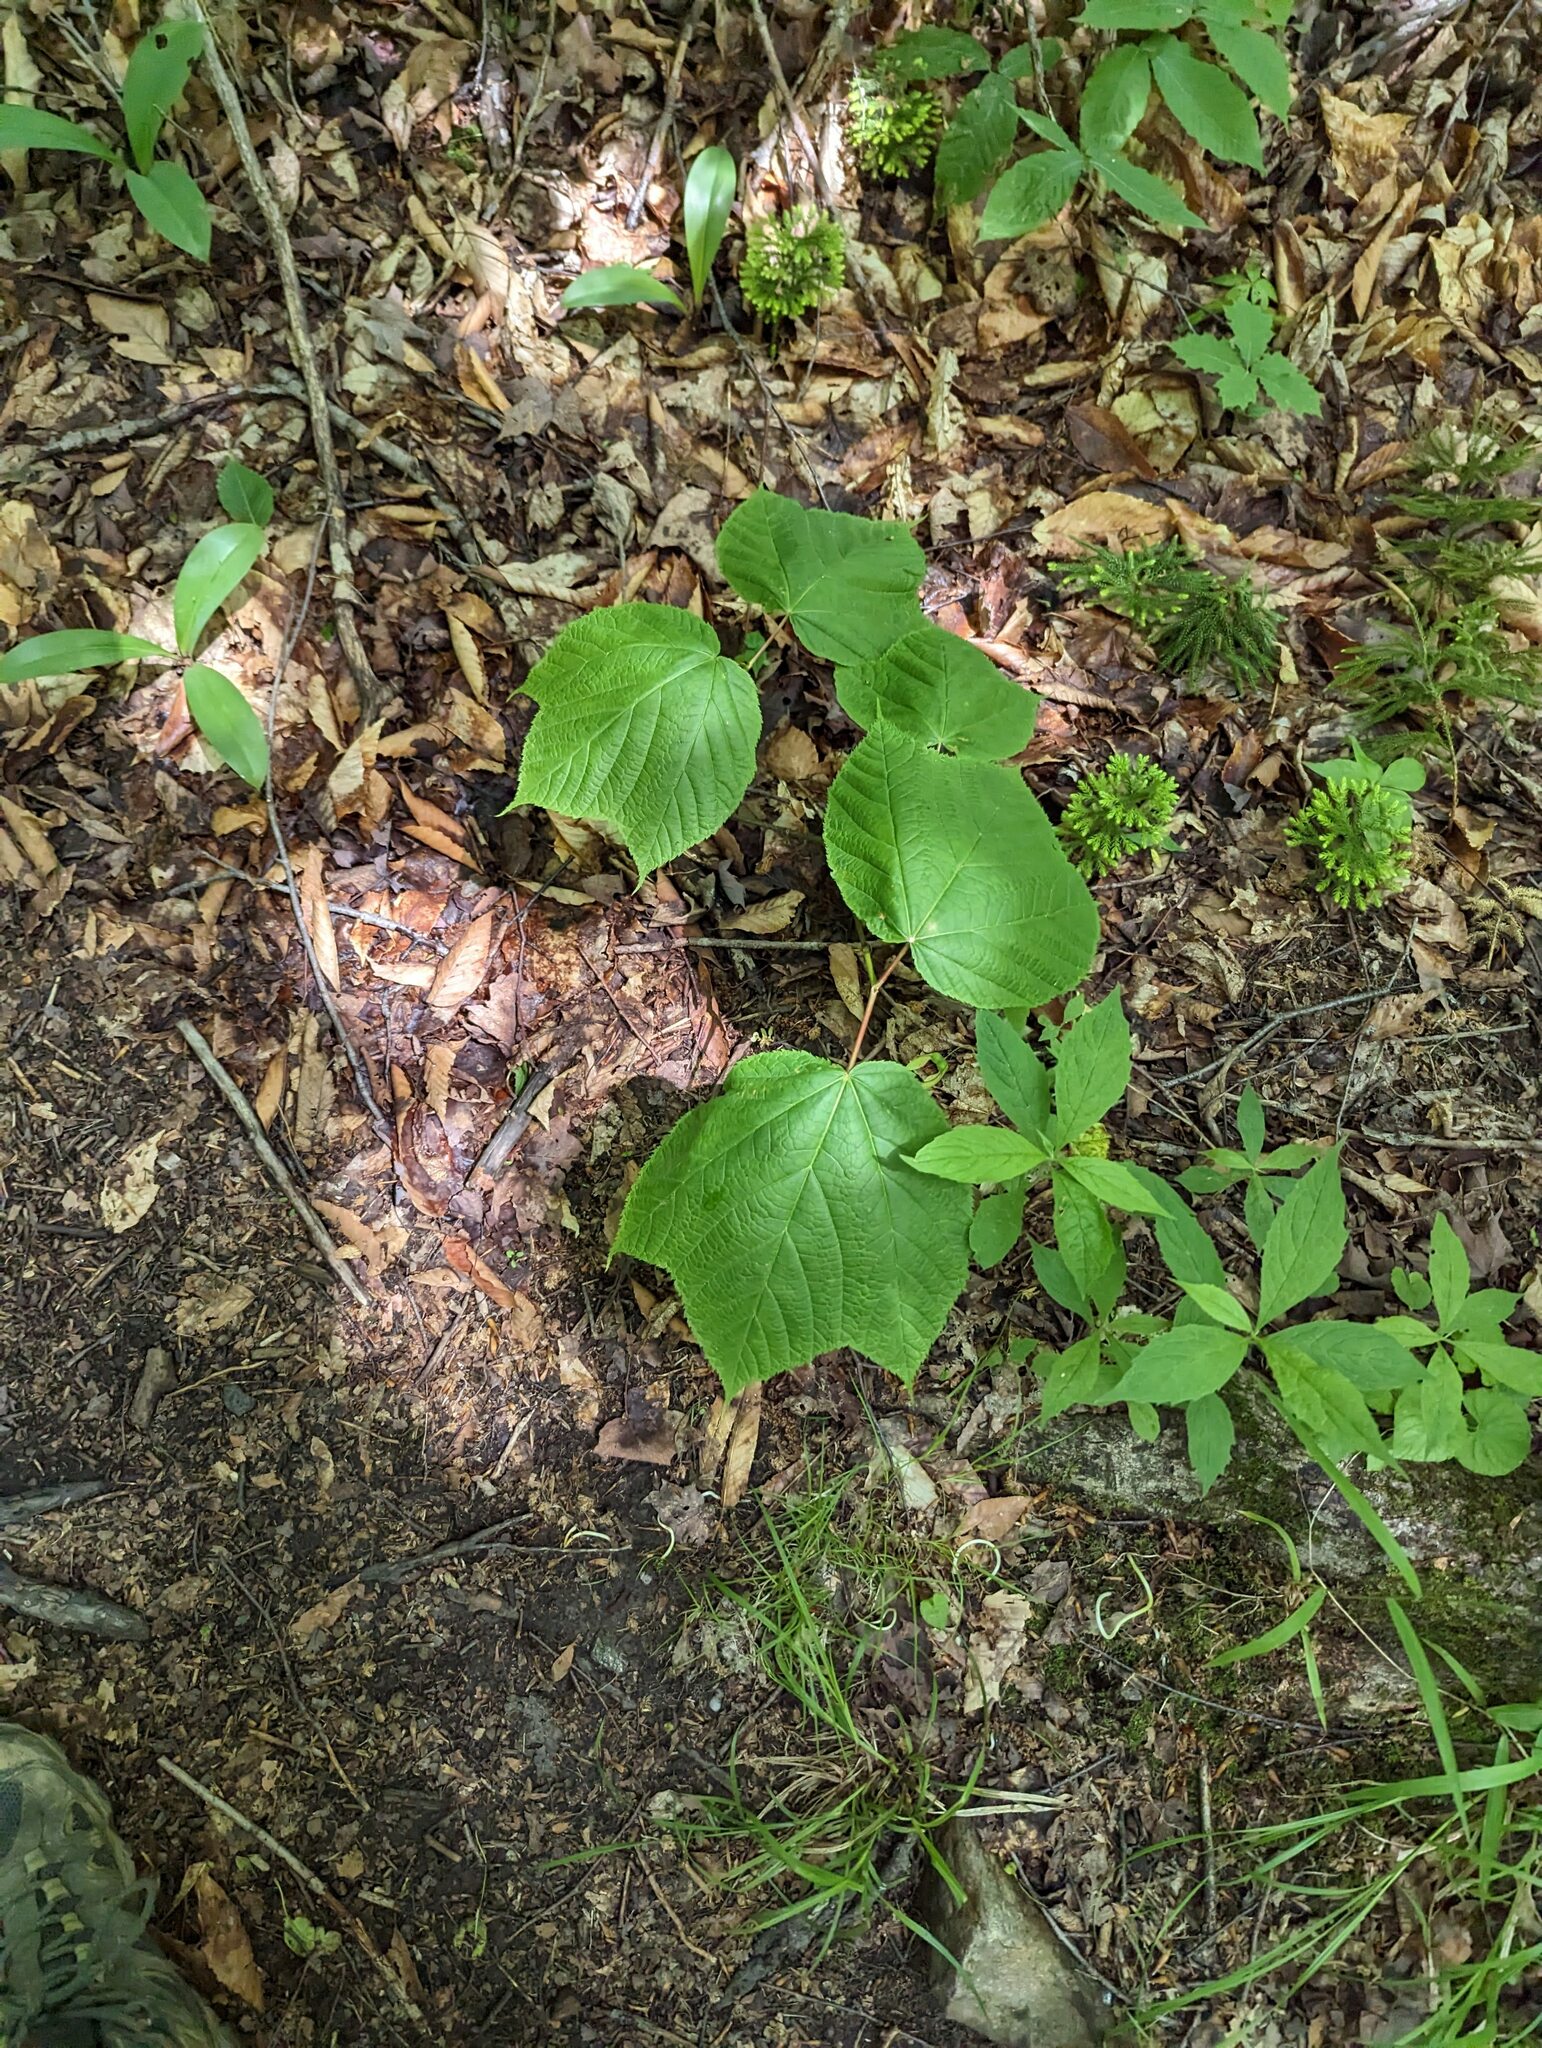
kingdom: Plantae
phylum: Tracheophyta
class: Magnoliopsida
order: Sapindales
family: Sapindaceae
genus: Acer
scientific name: Acer pensylvanicum
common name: Moosewood
